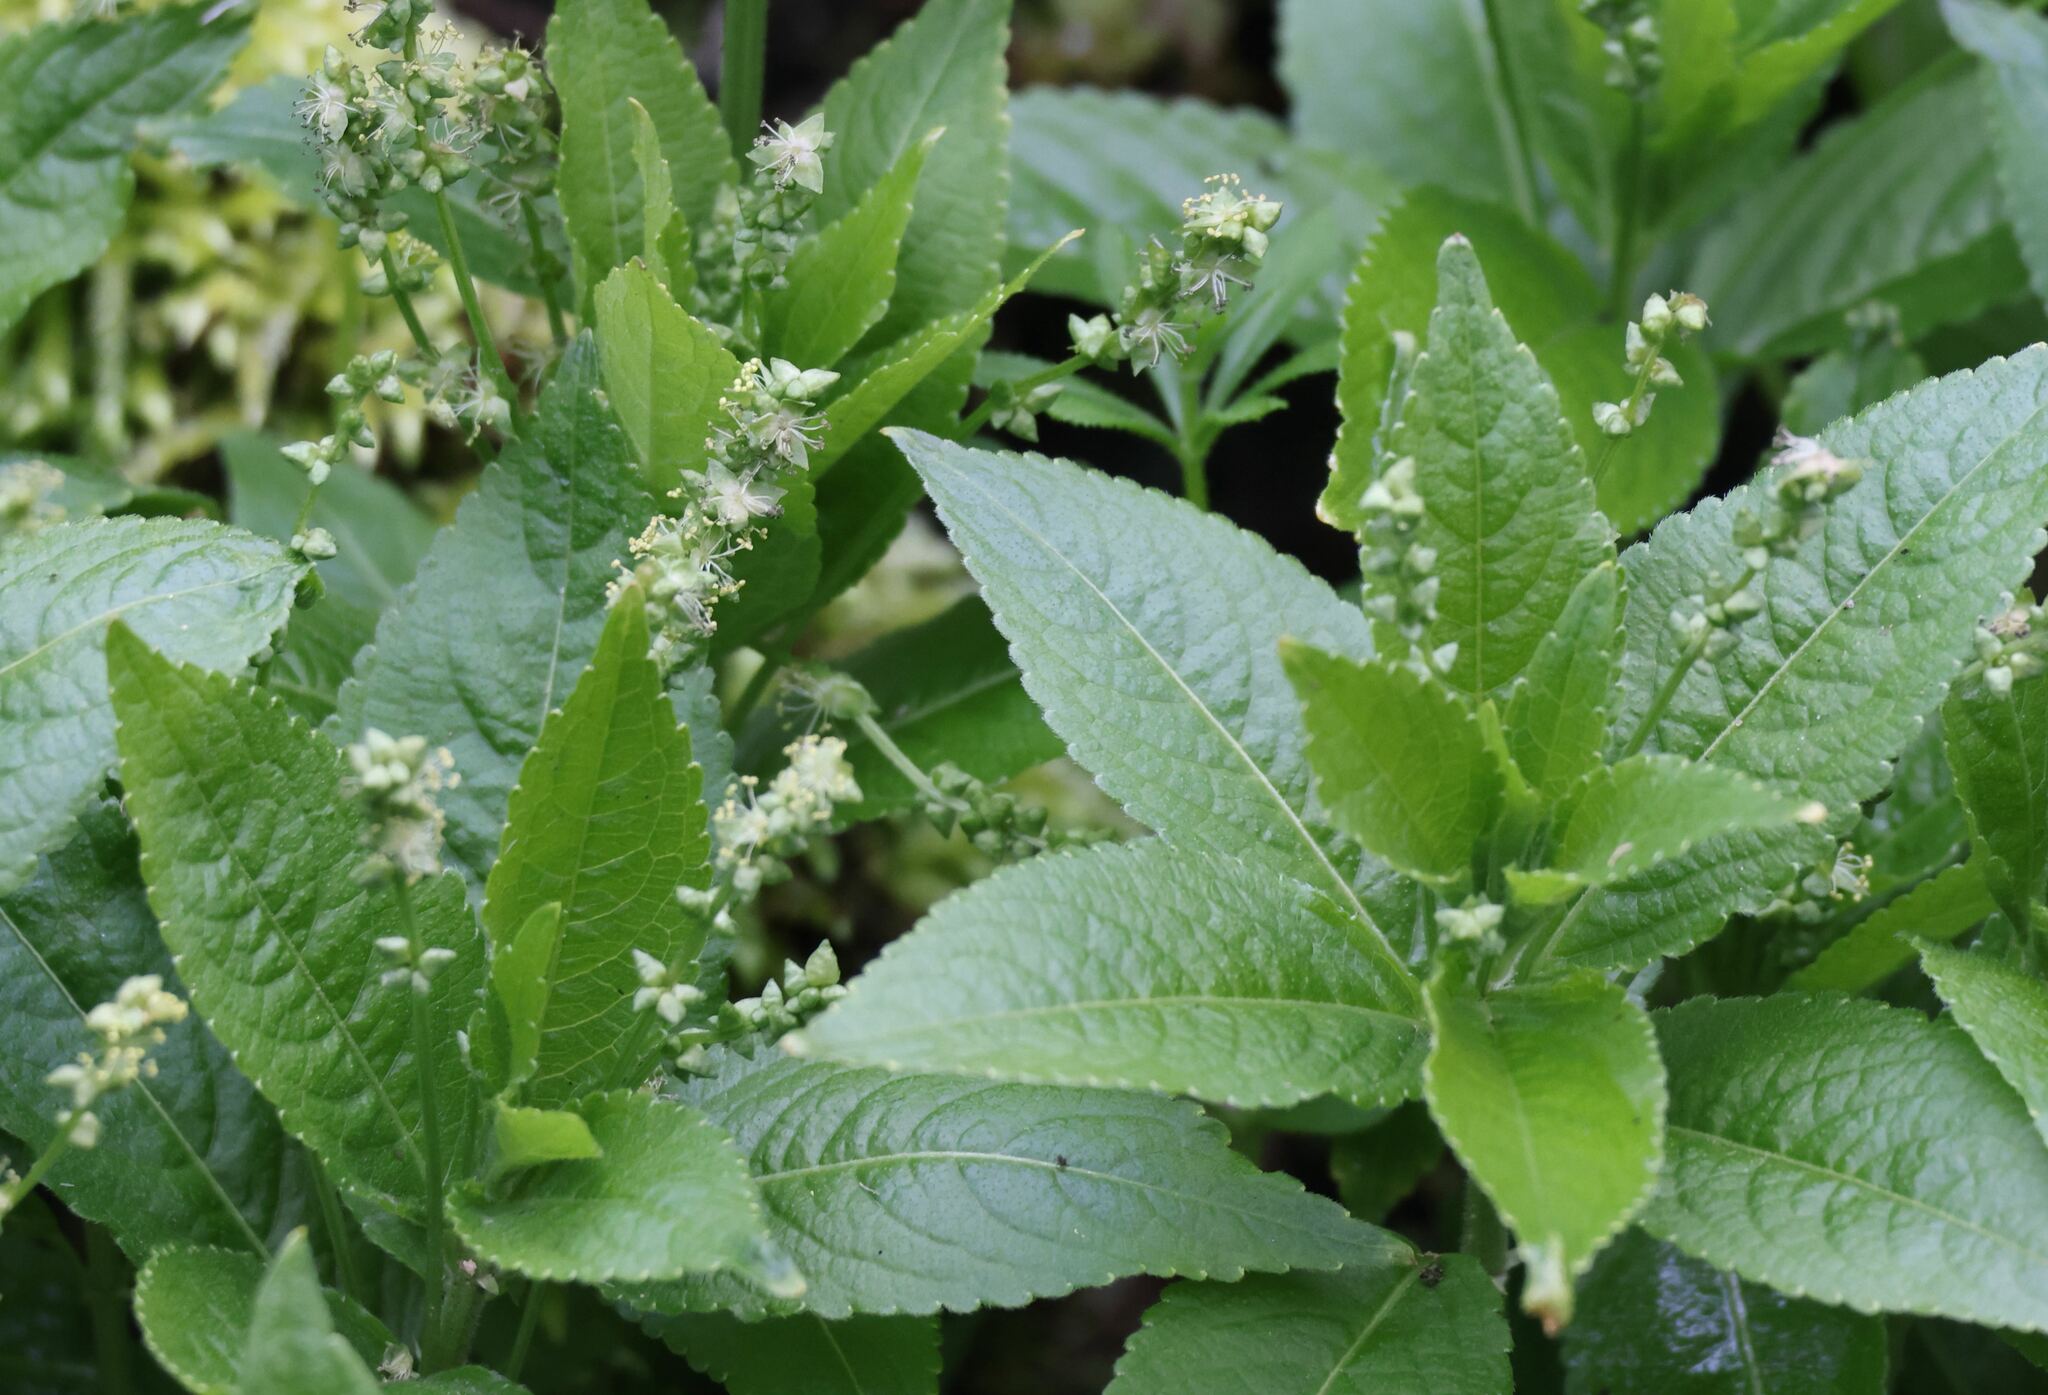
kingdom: Plantae
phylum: Tracheophyta
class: Magnoliopsida
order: Malpighiales
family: Euphorbiaceae
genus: Mercurialis
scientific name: Mercurialis perennis
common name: Dog mercury
